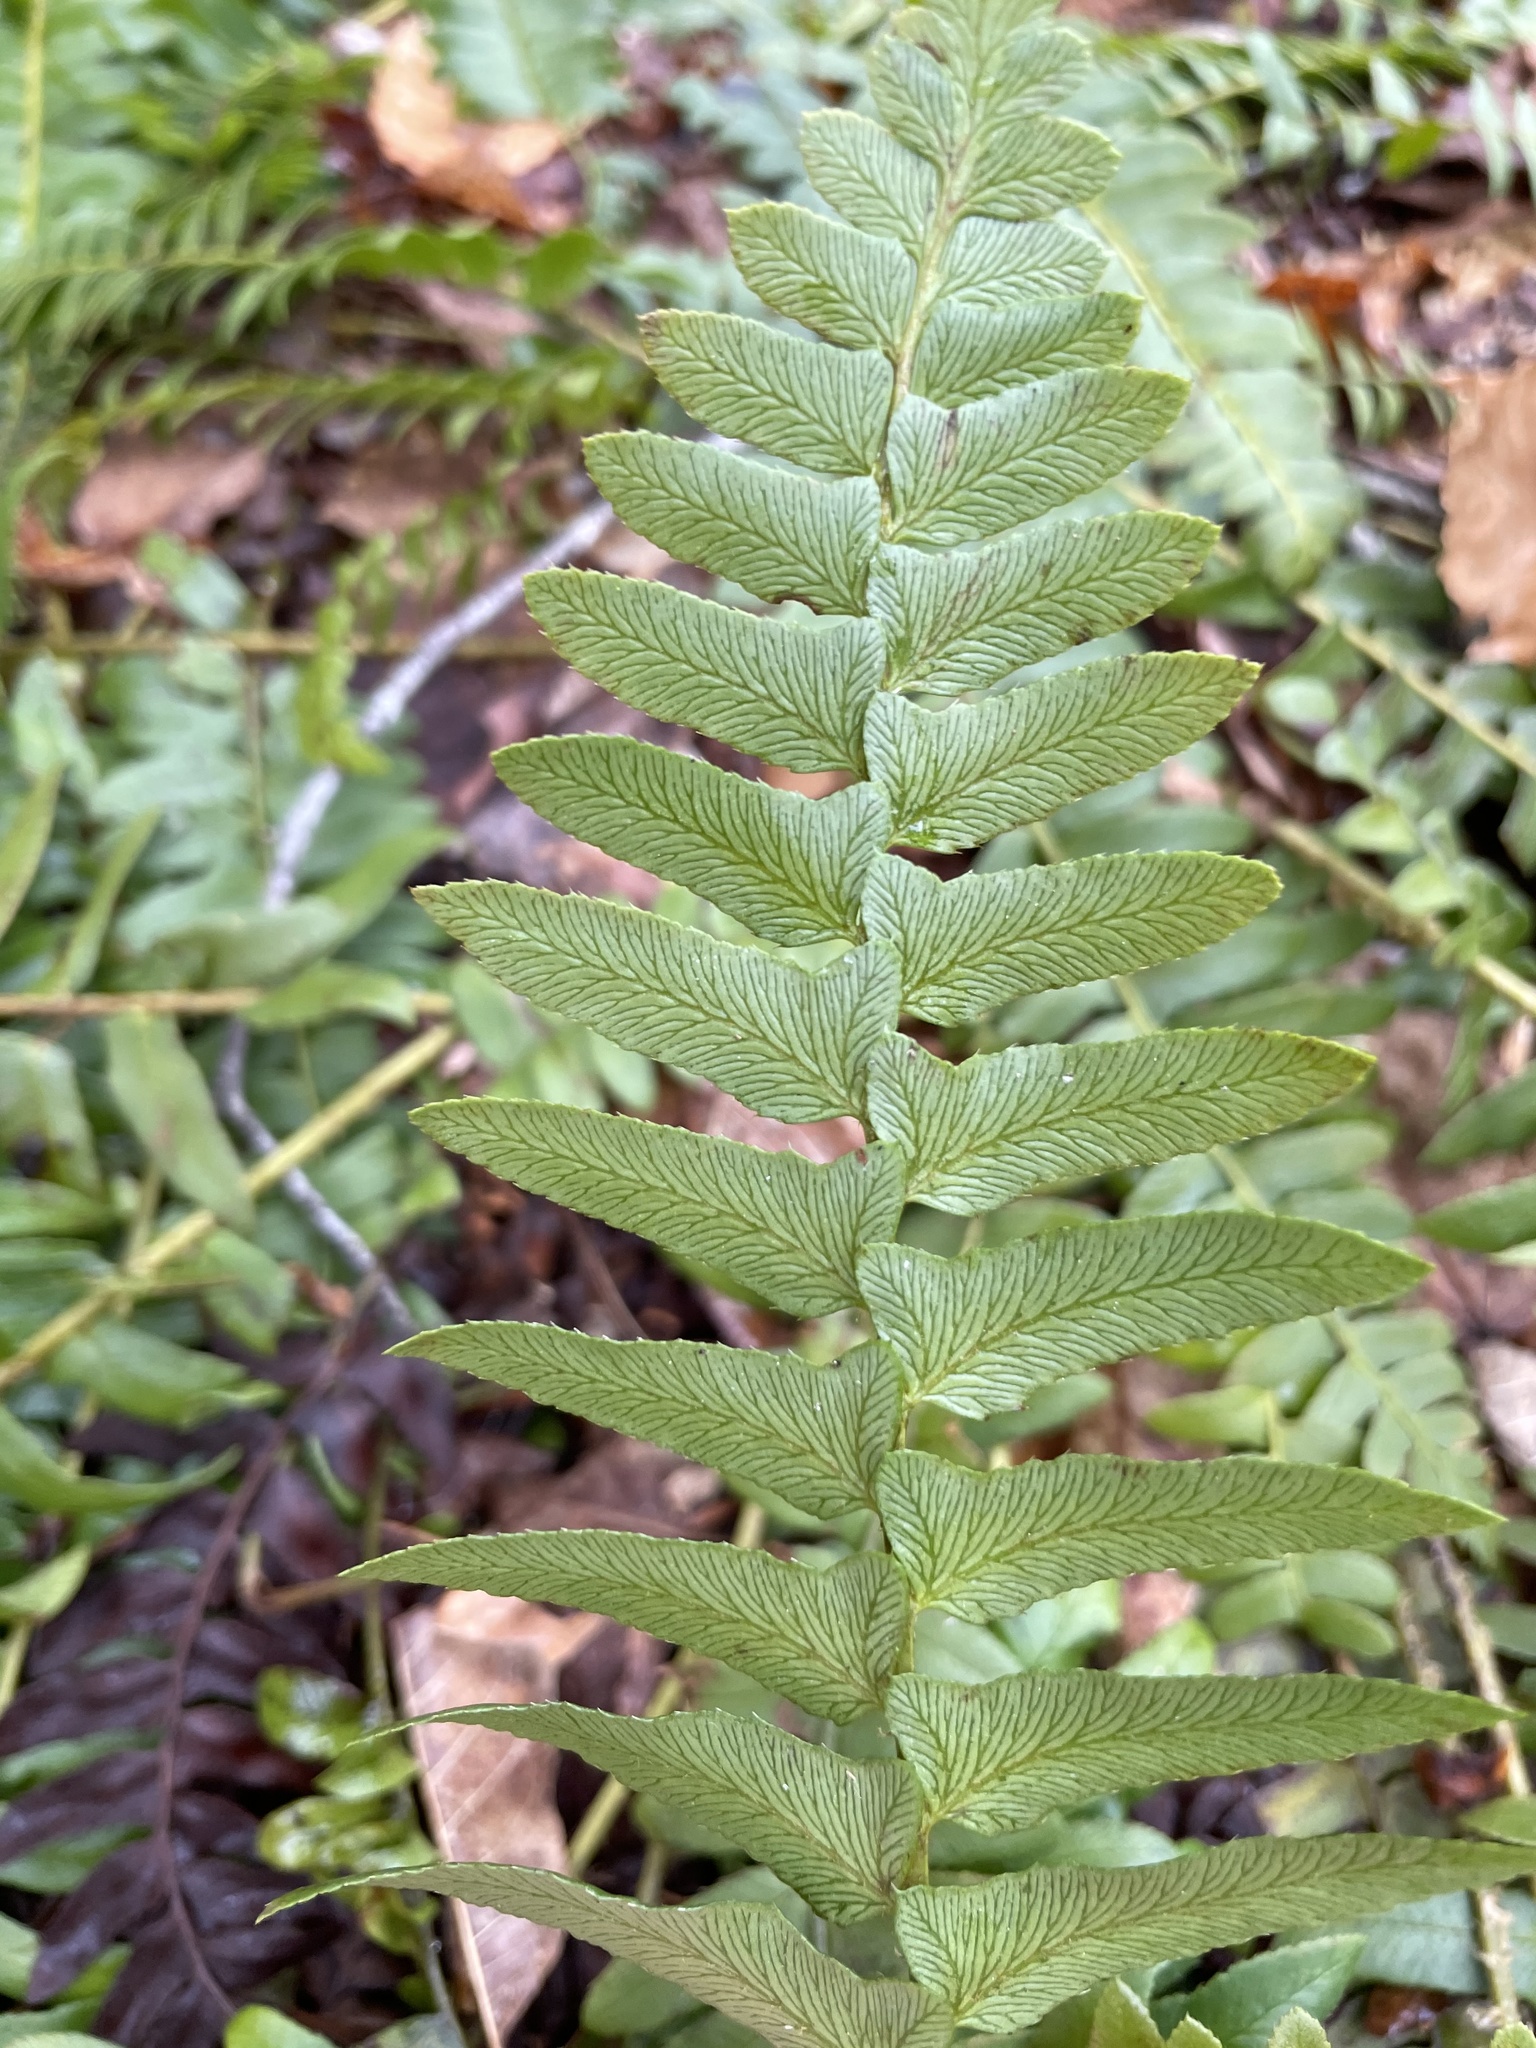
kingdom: Plantae
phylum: Tracheophyta
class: Polypodiopsida
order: Polypodiales
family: Dryopteridaceae
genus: Polystichum
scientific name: Polystichum acrostichoides
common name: Christmas fern
